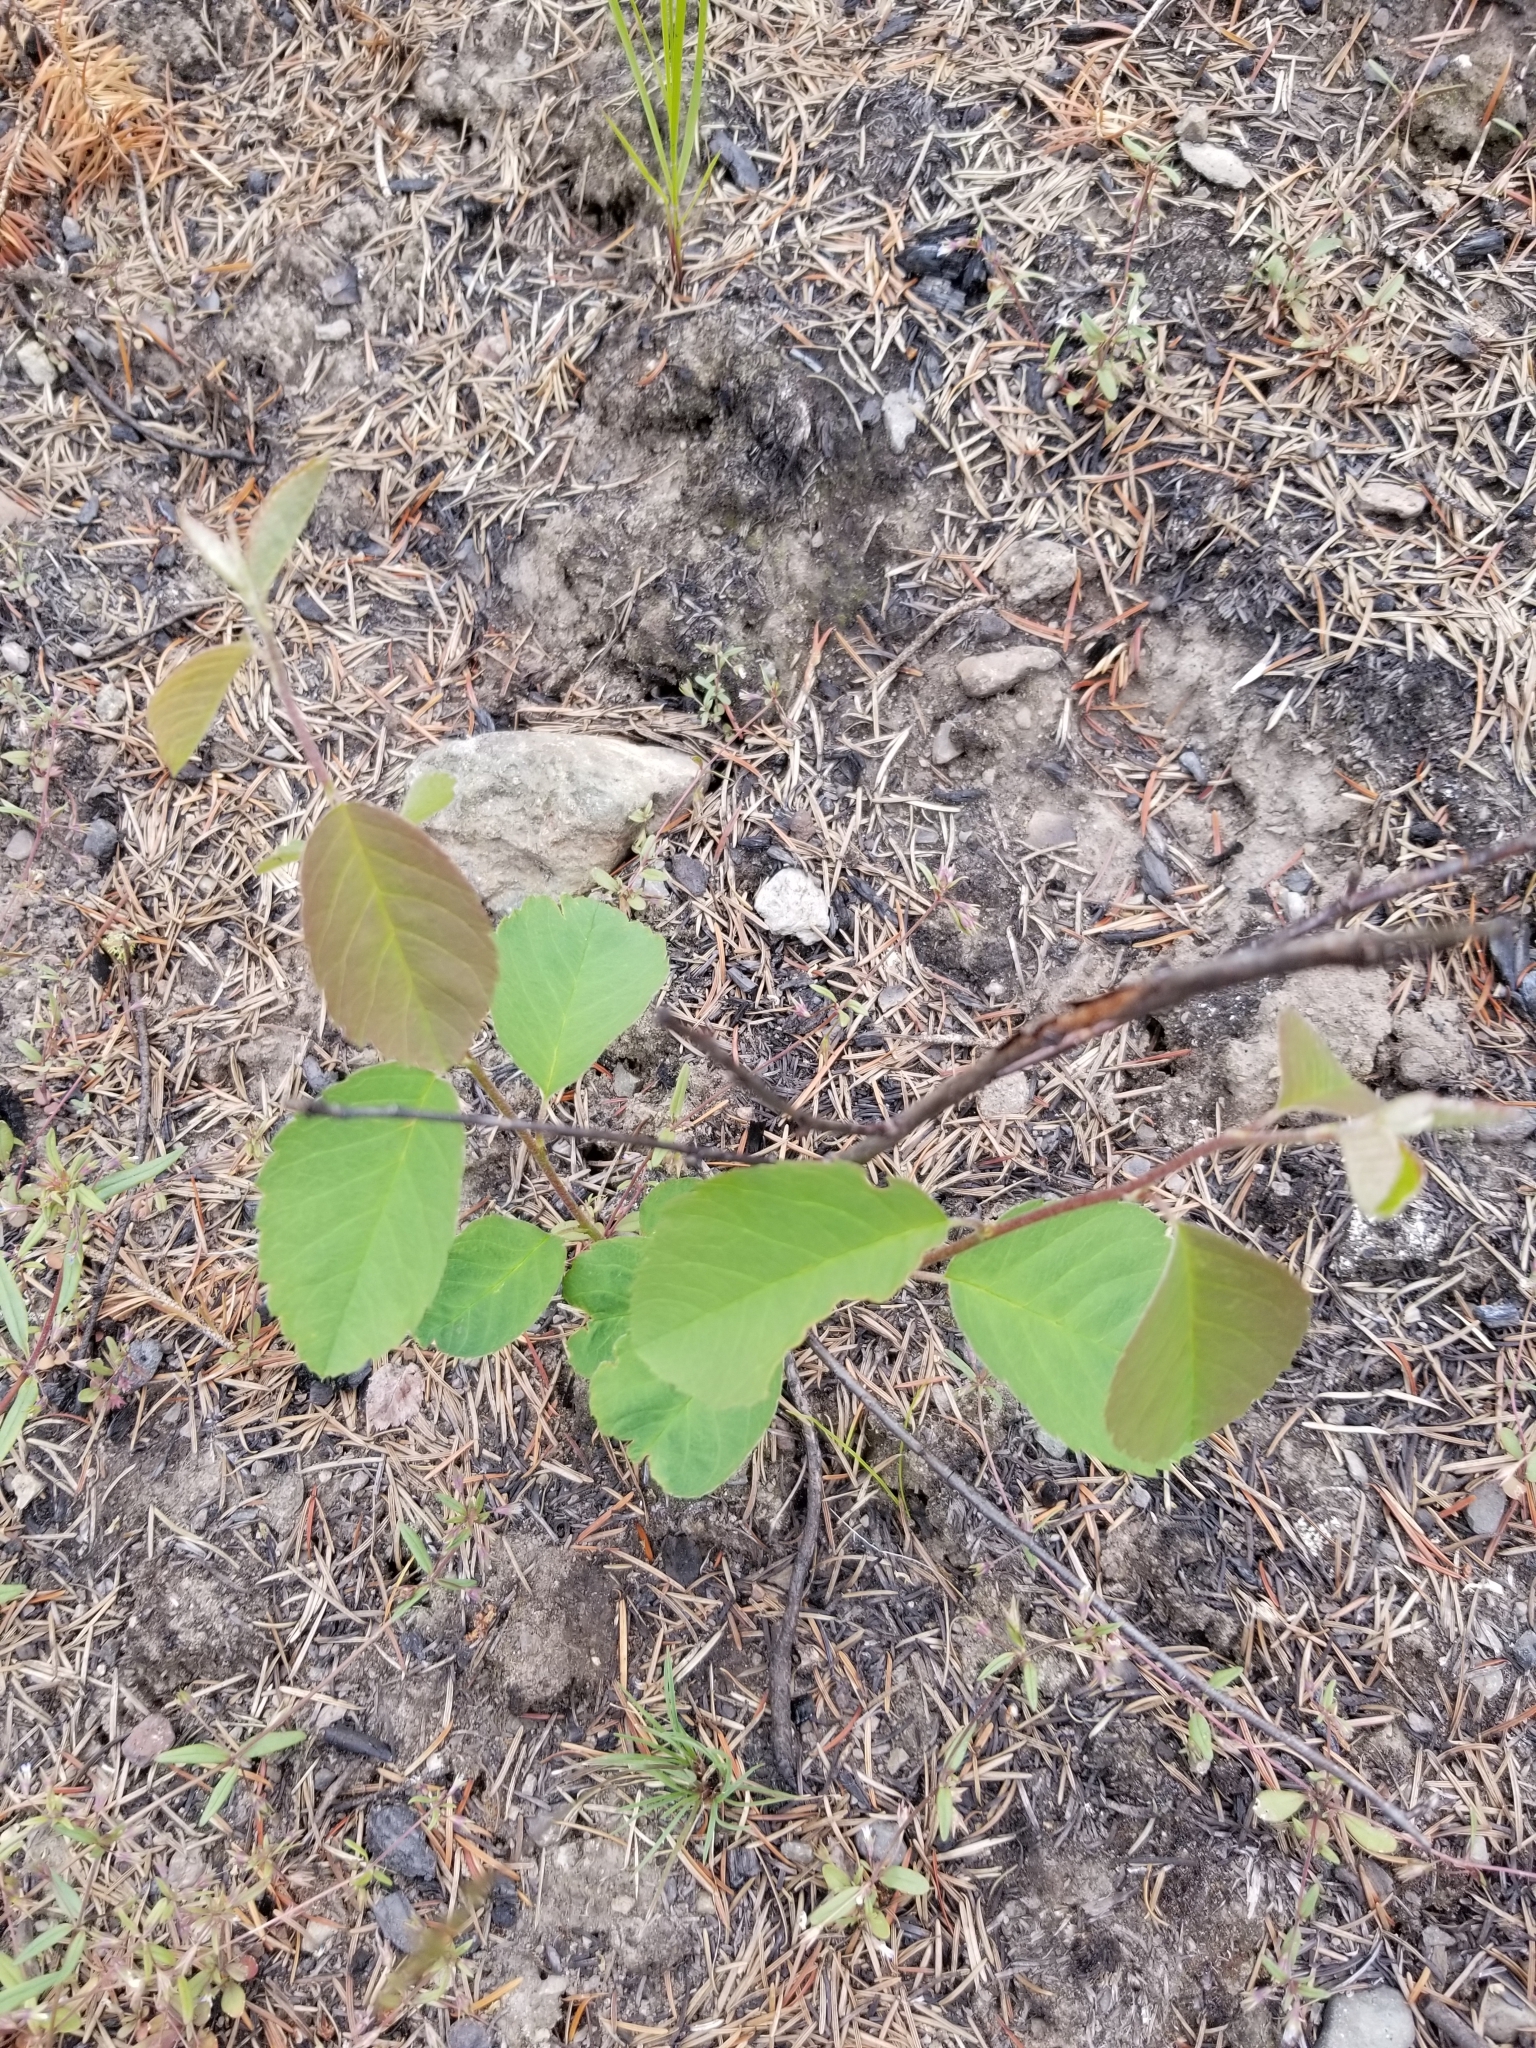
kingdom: Plantae
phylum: Tracheophyta
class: Magnoliopsida
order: Rosales
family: Rosaceae
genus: Amelanchier
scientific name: Amelanchier alnifolia
